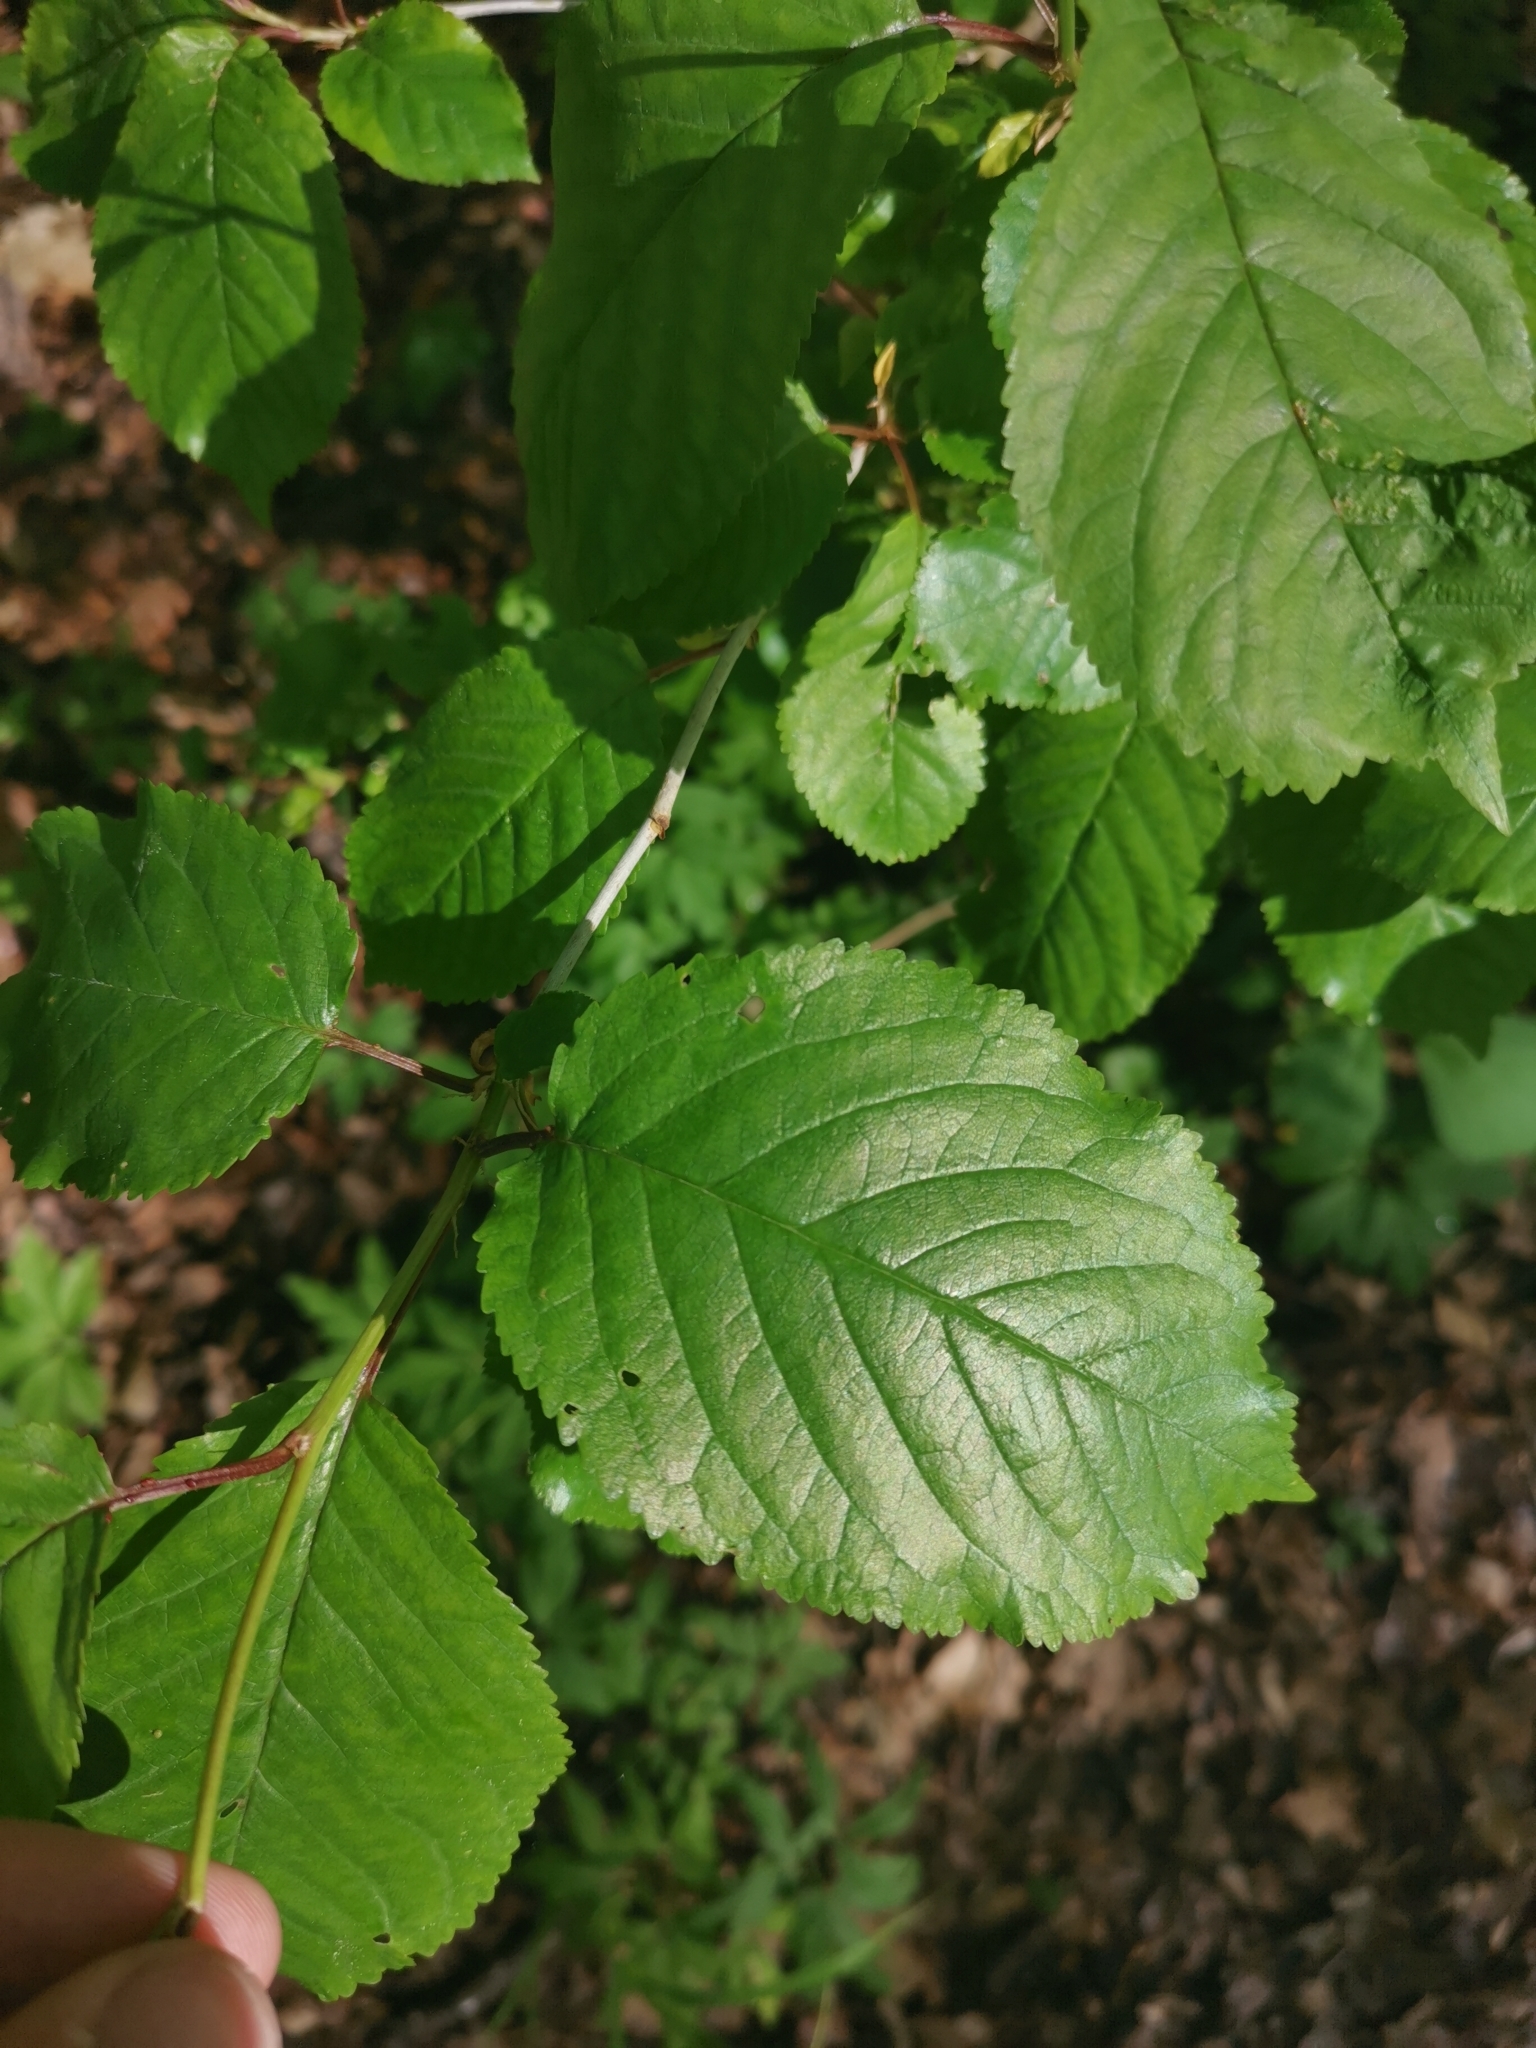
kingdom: Plantae
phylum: Tracheophyta
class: Magnoliopsida
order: Rosales
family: Rosaceae
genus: Prunus
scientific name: Prunus avium
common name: Sweet cherry
